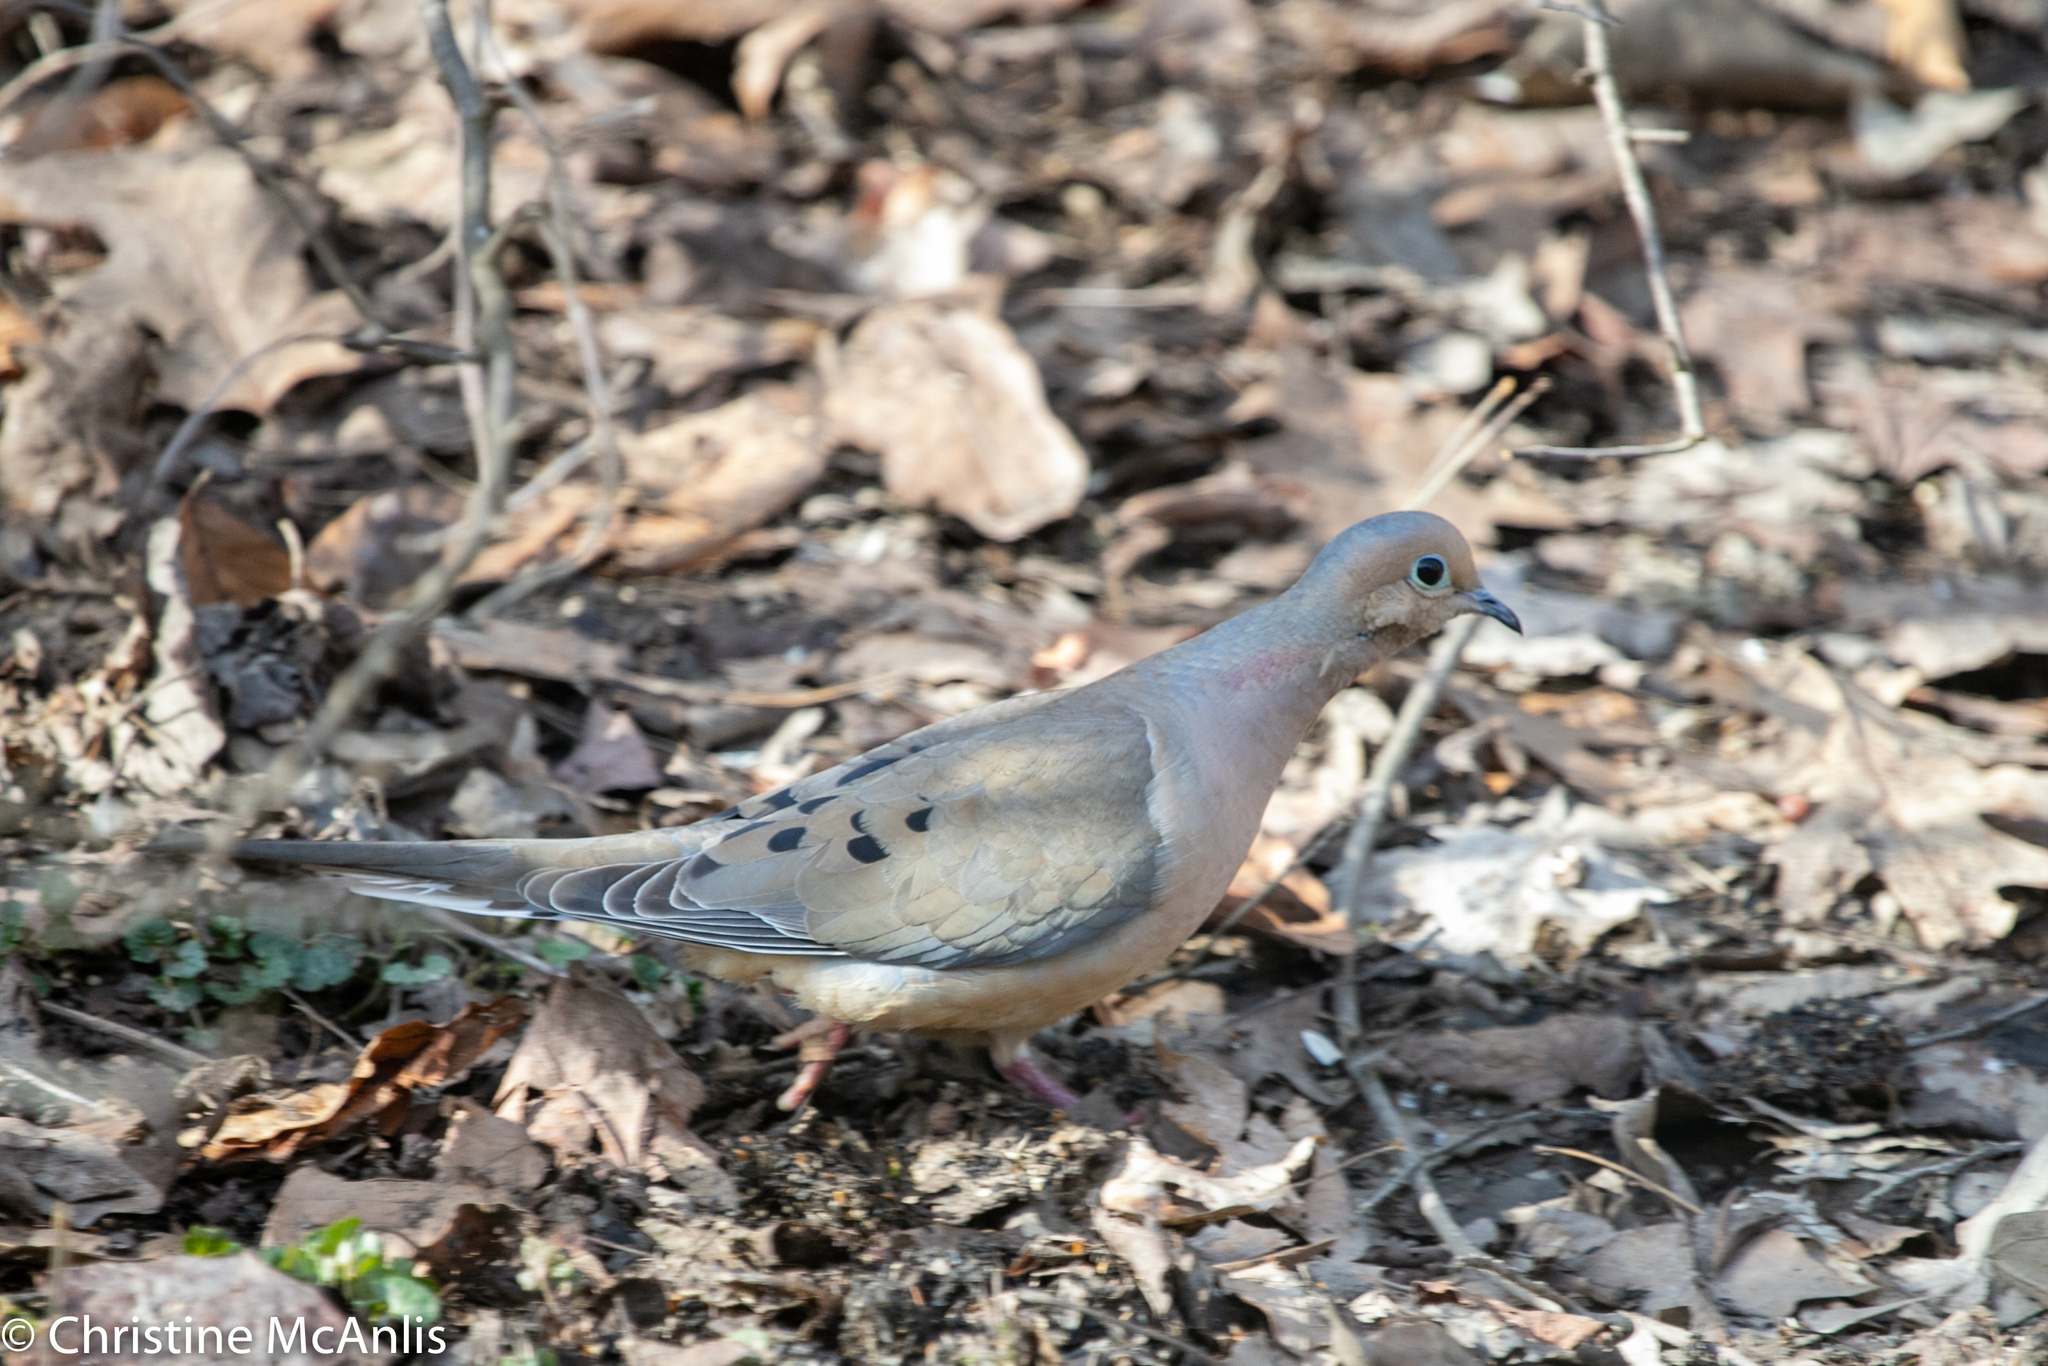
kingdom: Animalia
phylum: Chordata
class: Aves
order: Columbiformes
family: Columbidae
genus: Zenaida
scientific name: Zenaida macroura
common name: Mourning dove
